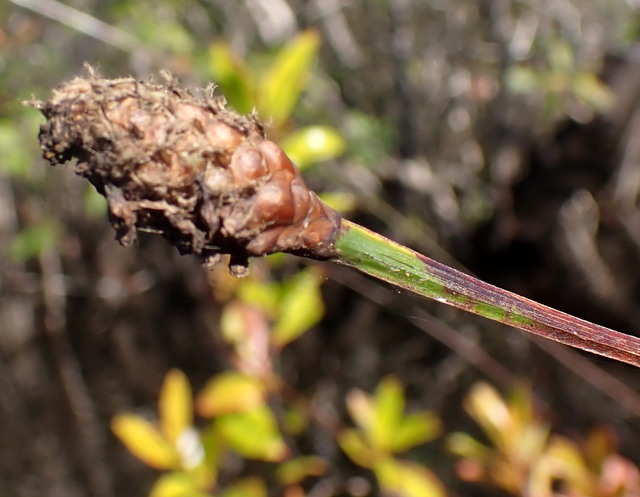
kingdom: Plantae
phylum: Tracheophyta
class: Liliopsida
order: Poales
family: Xyridaceae
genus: Xyris
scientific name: Xyris fimbriata
